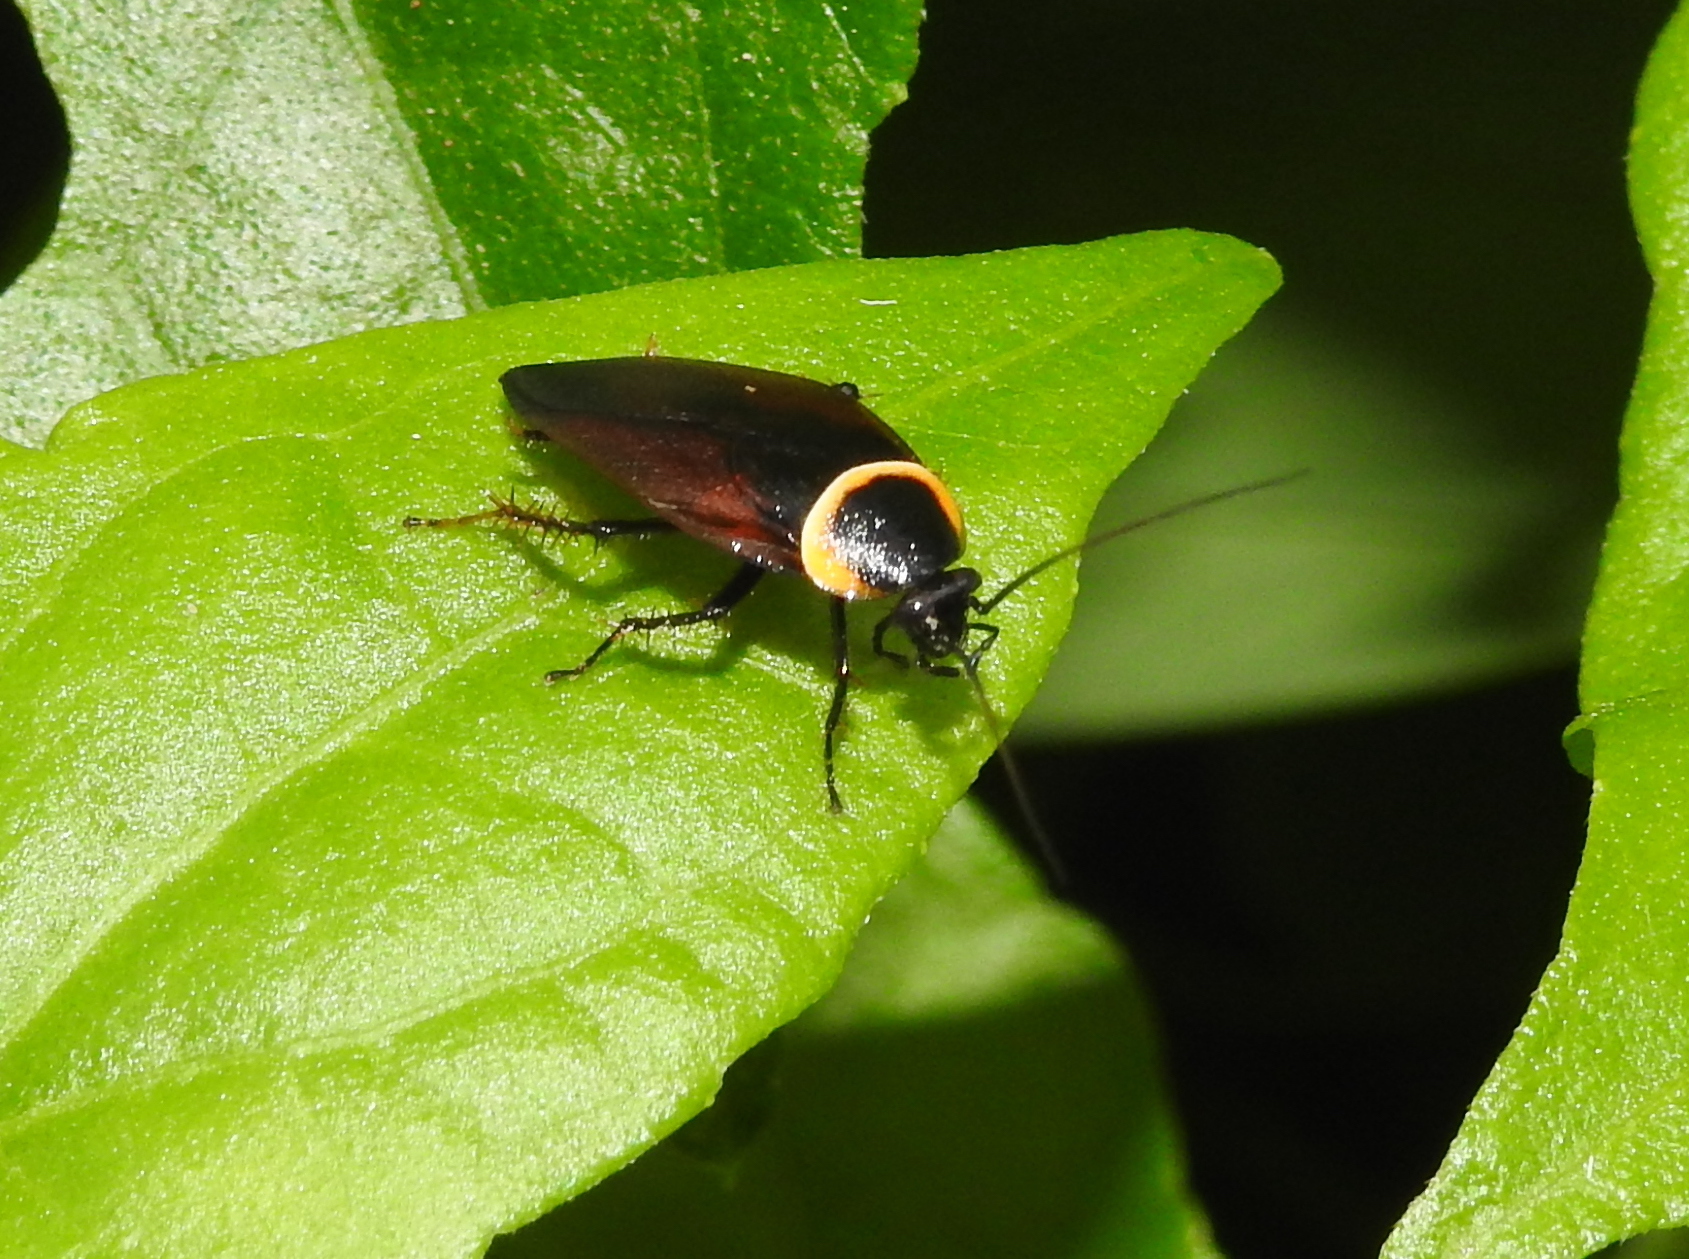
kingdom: Animalia
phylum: Arthropoda
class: Insecta
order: Blattodea
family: Ectobiidae
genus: Hemithyrsocera
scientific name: Hemithyrsocera palliata
